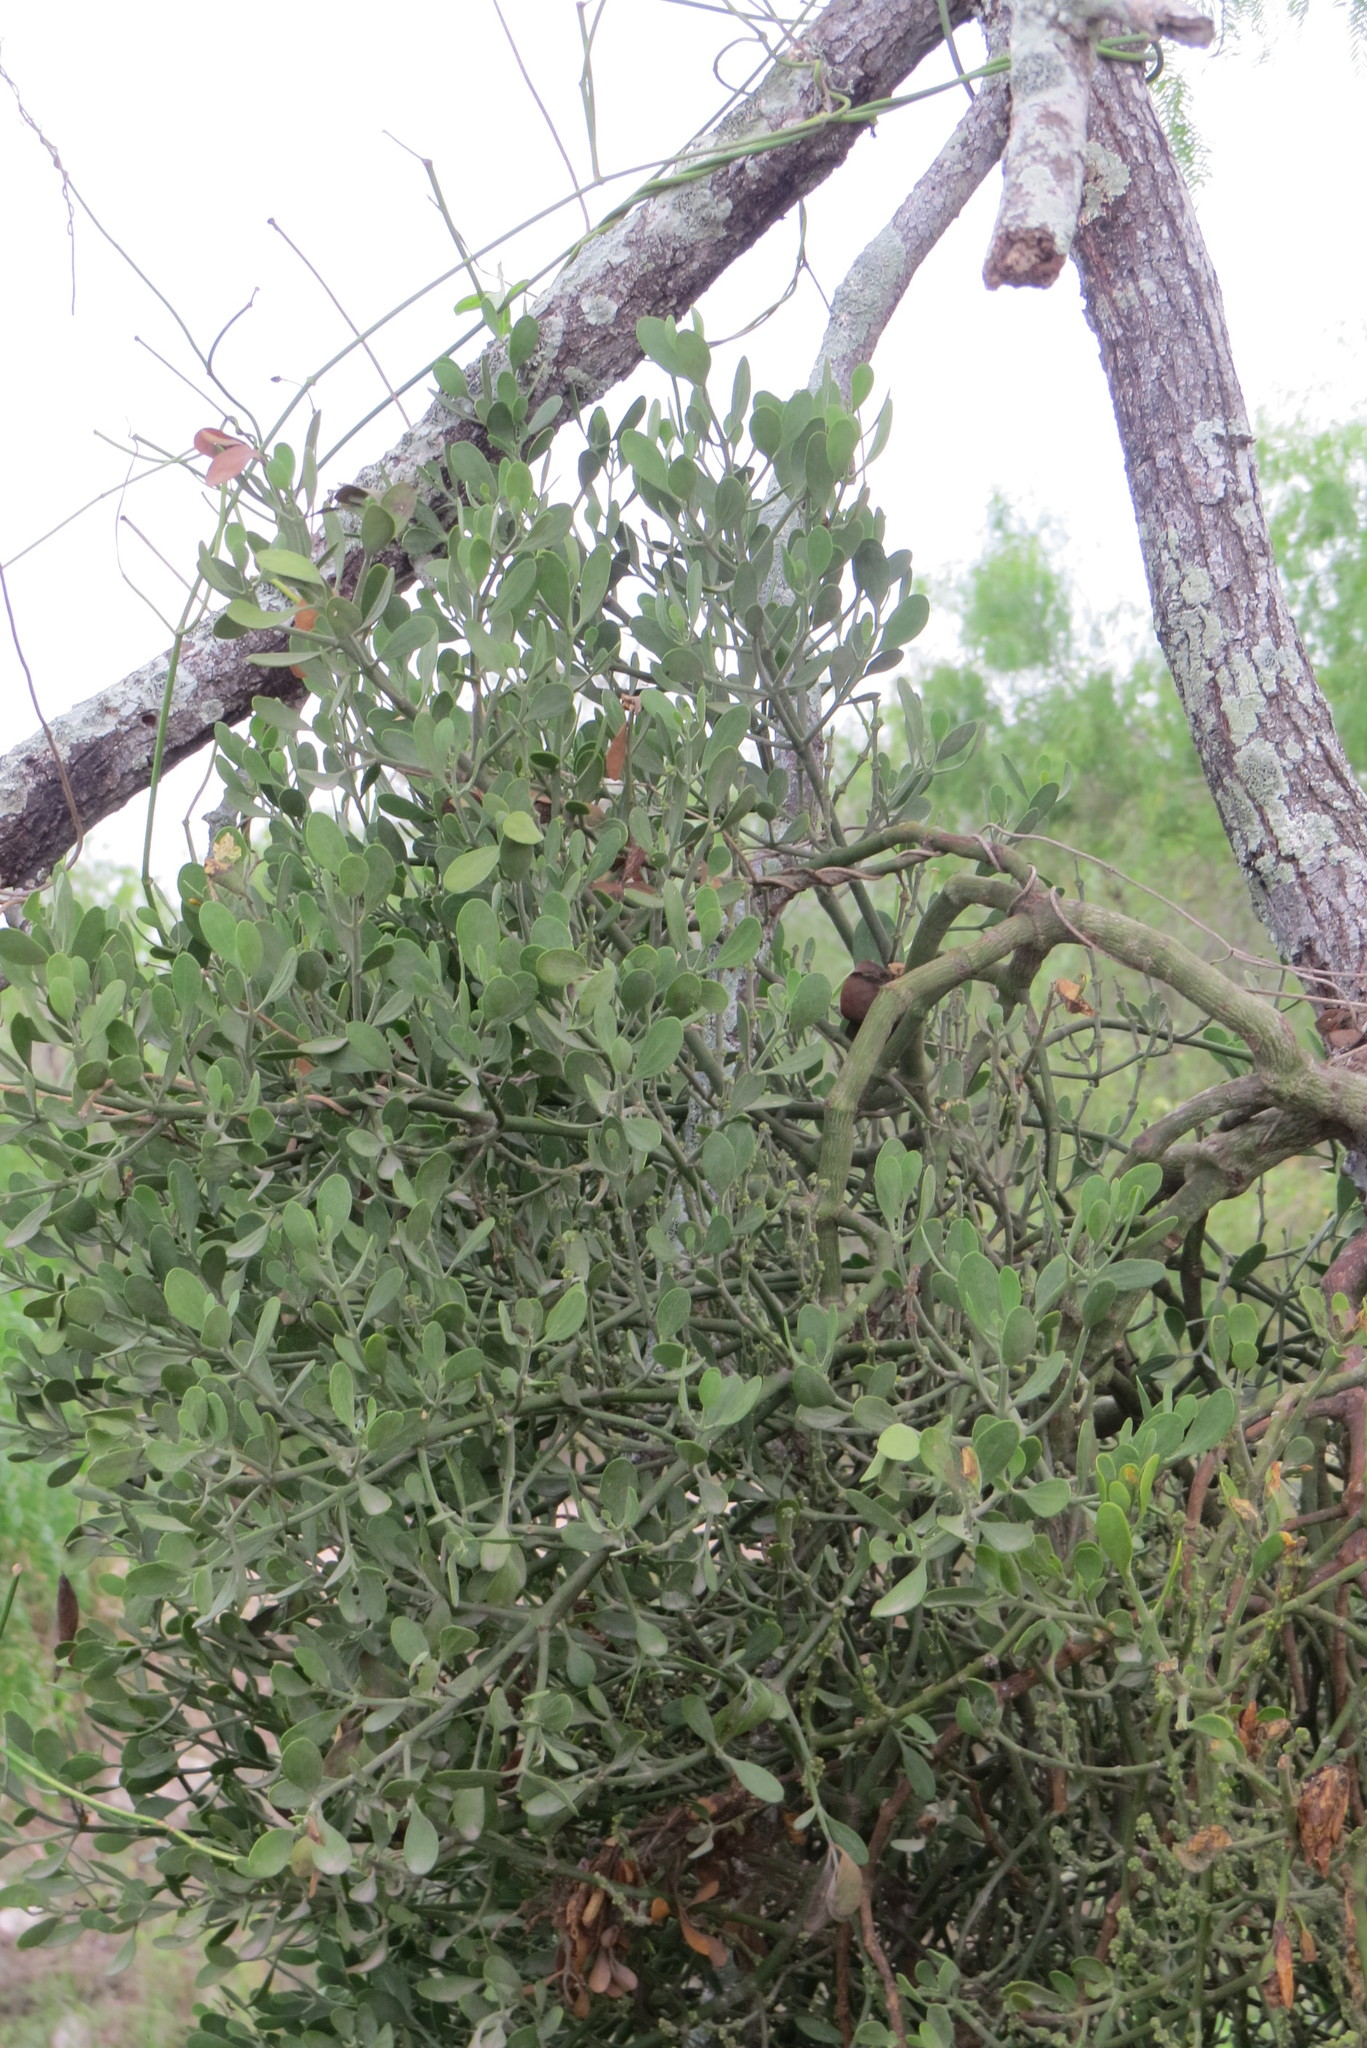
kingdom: Plantae
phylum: Tracheophyta
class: Magnoliopsida
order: Santalales
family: Viscaceae
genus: Phoradendron
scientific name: Phoradendron leucarpum
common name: Pacific mistletoe
